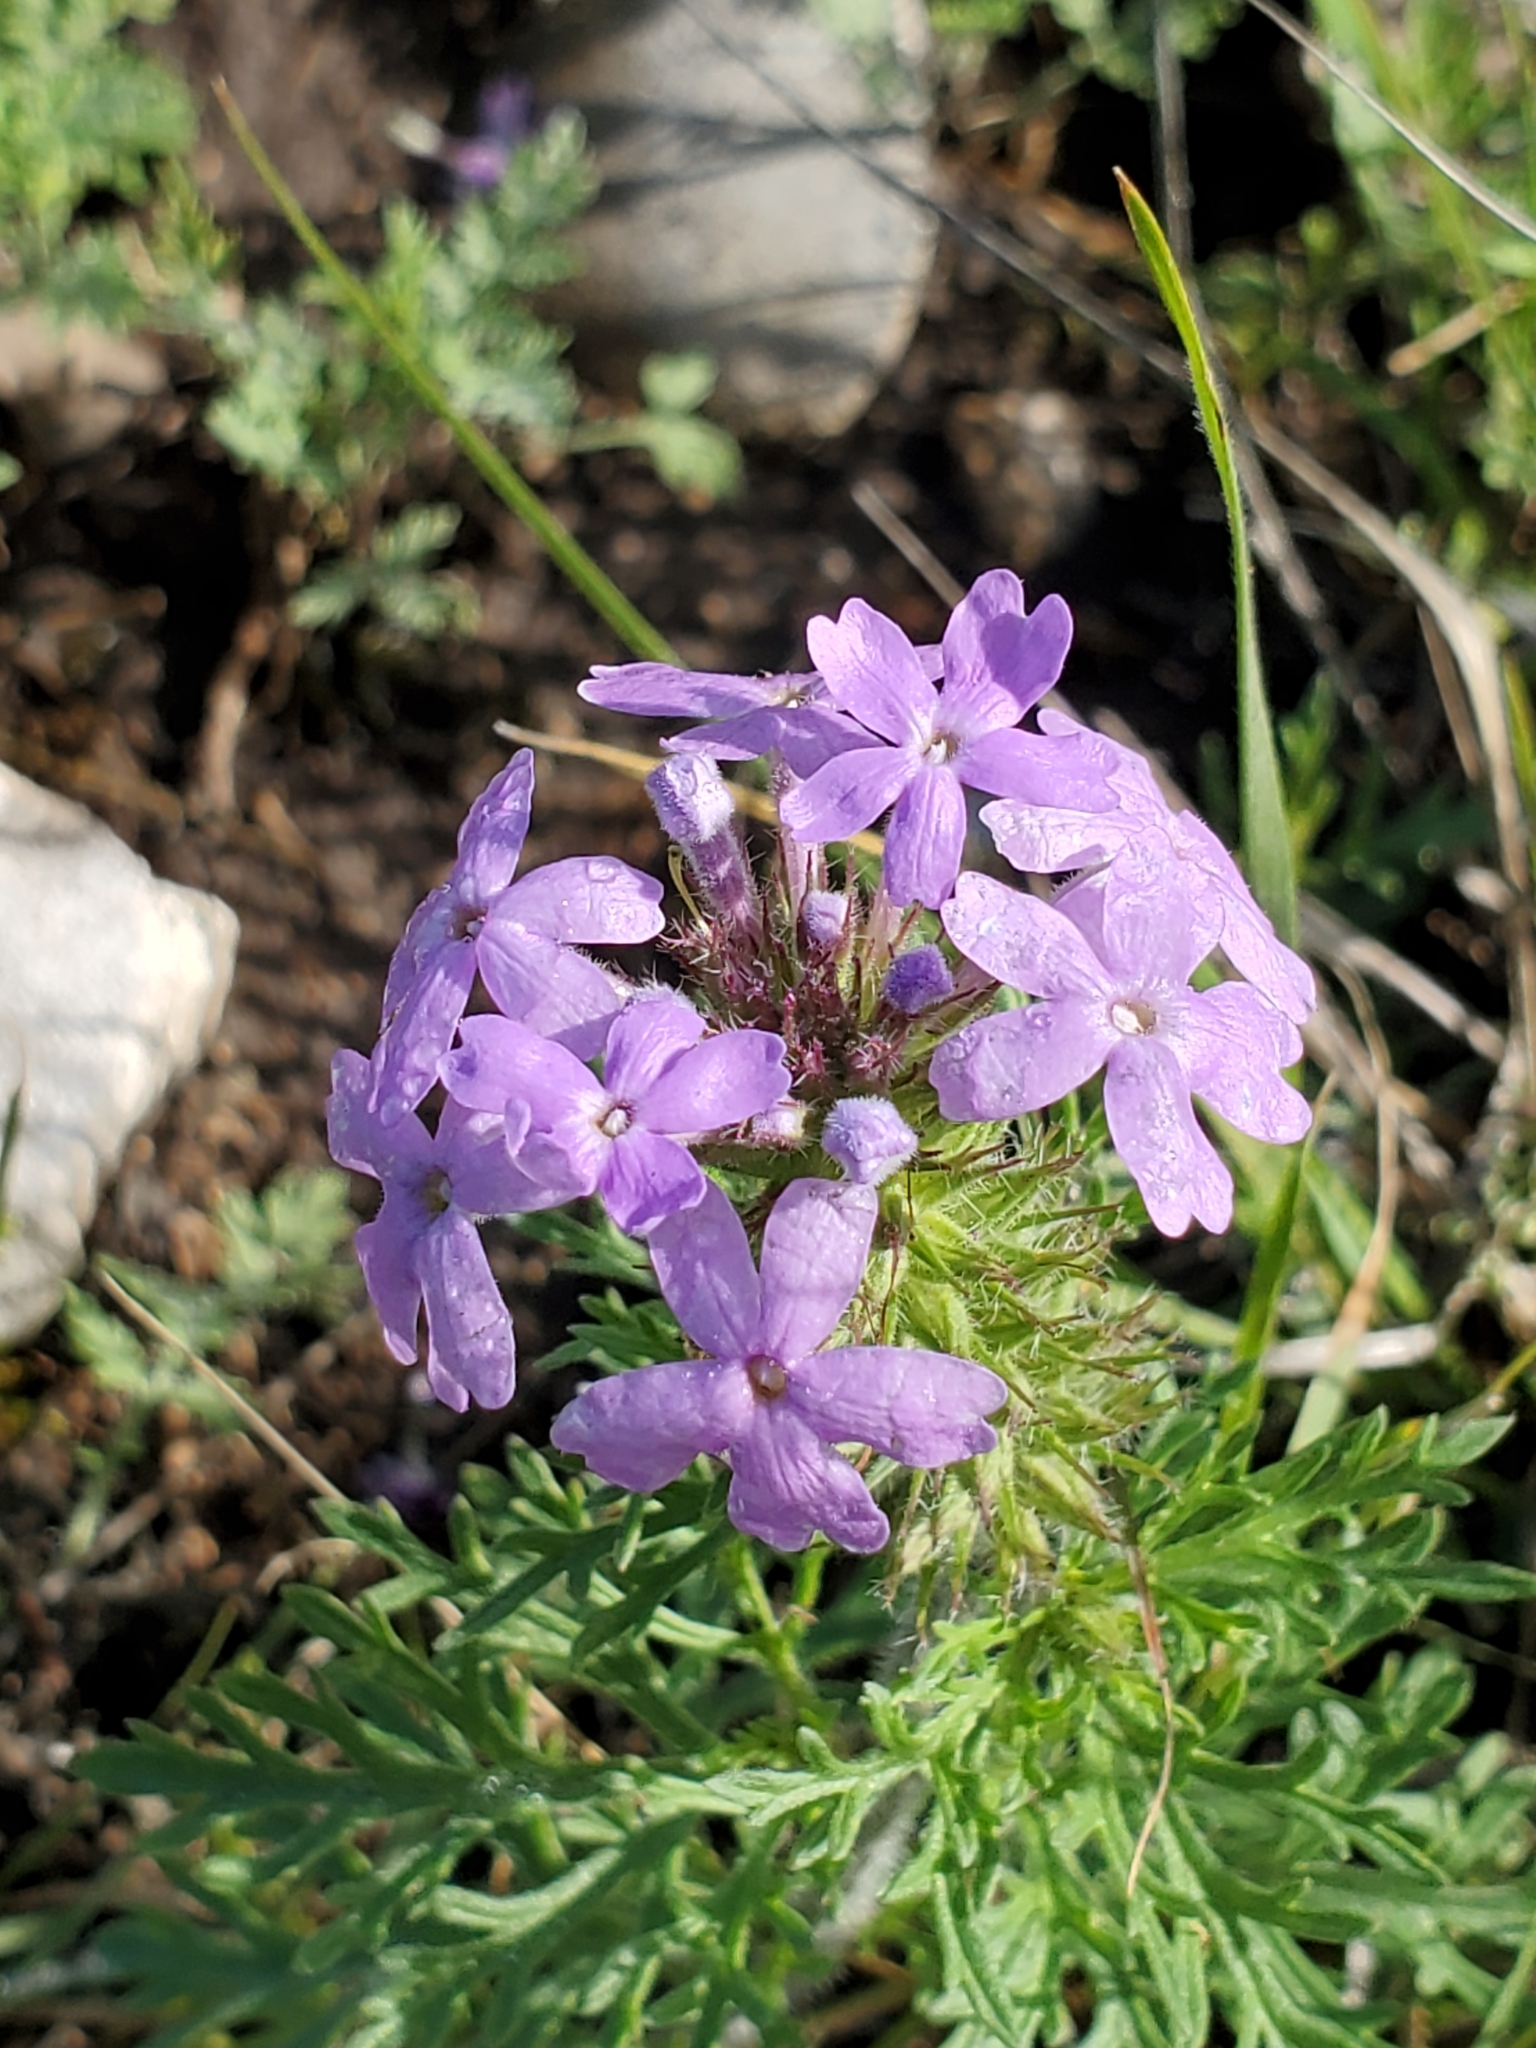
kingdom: Plantae
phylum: Tracheophyta
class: Magnoliopsida
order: Lamiales
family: Verbenaceae
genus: Verbena
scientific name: Verbena bipinnatifida
